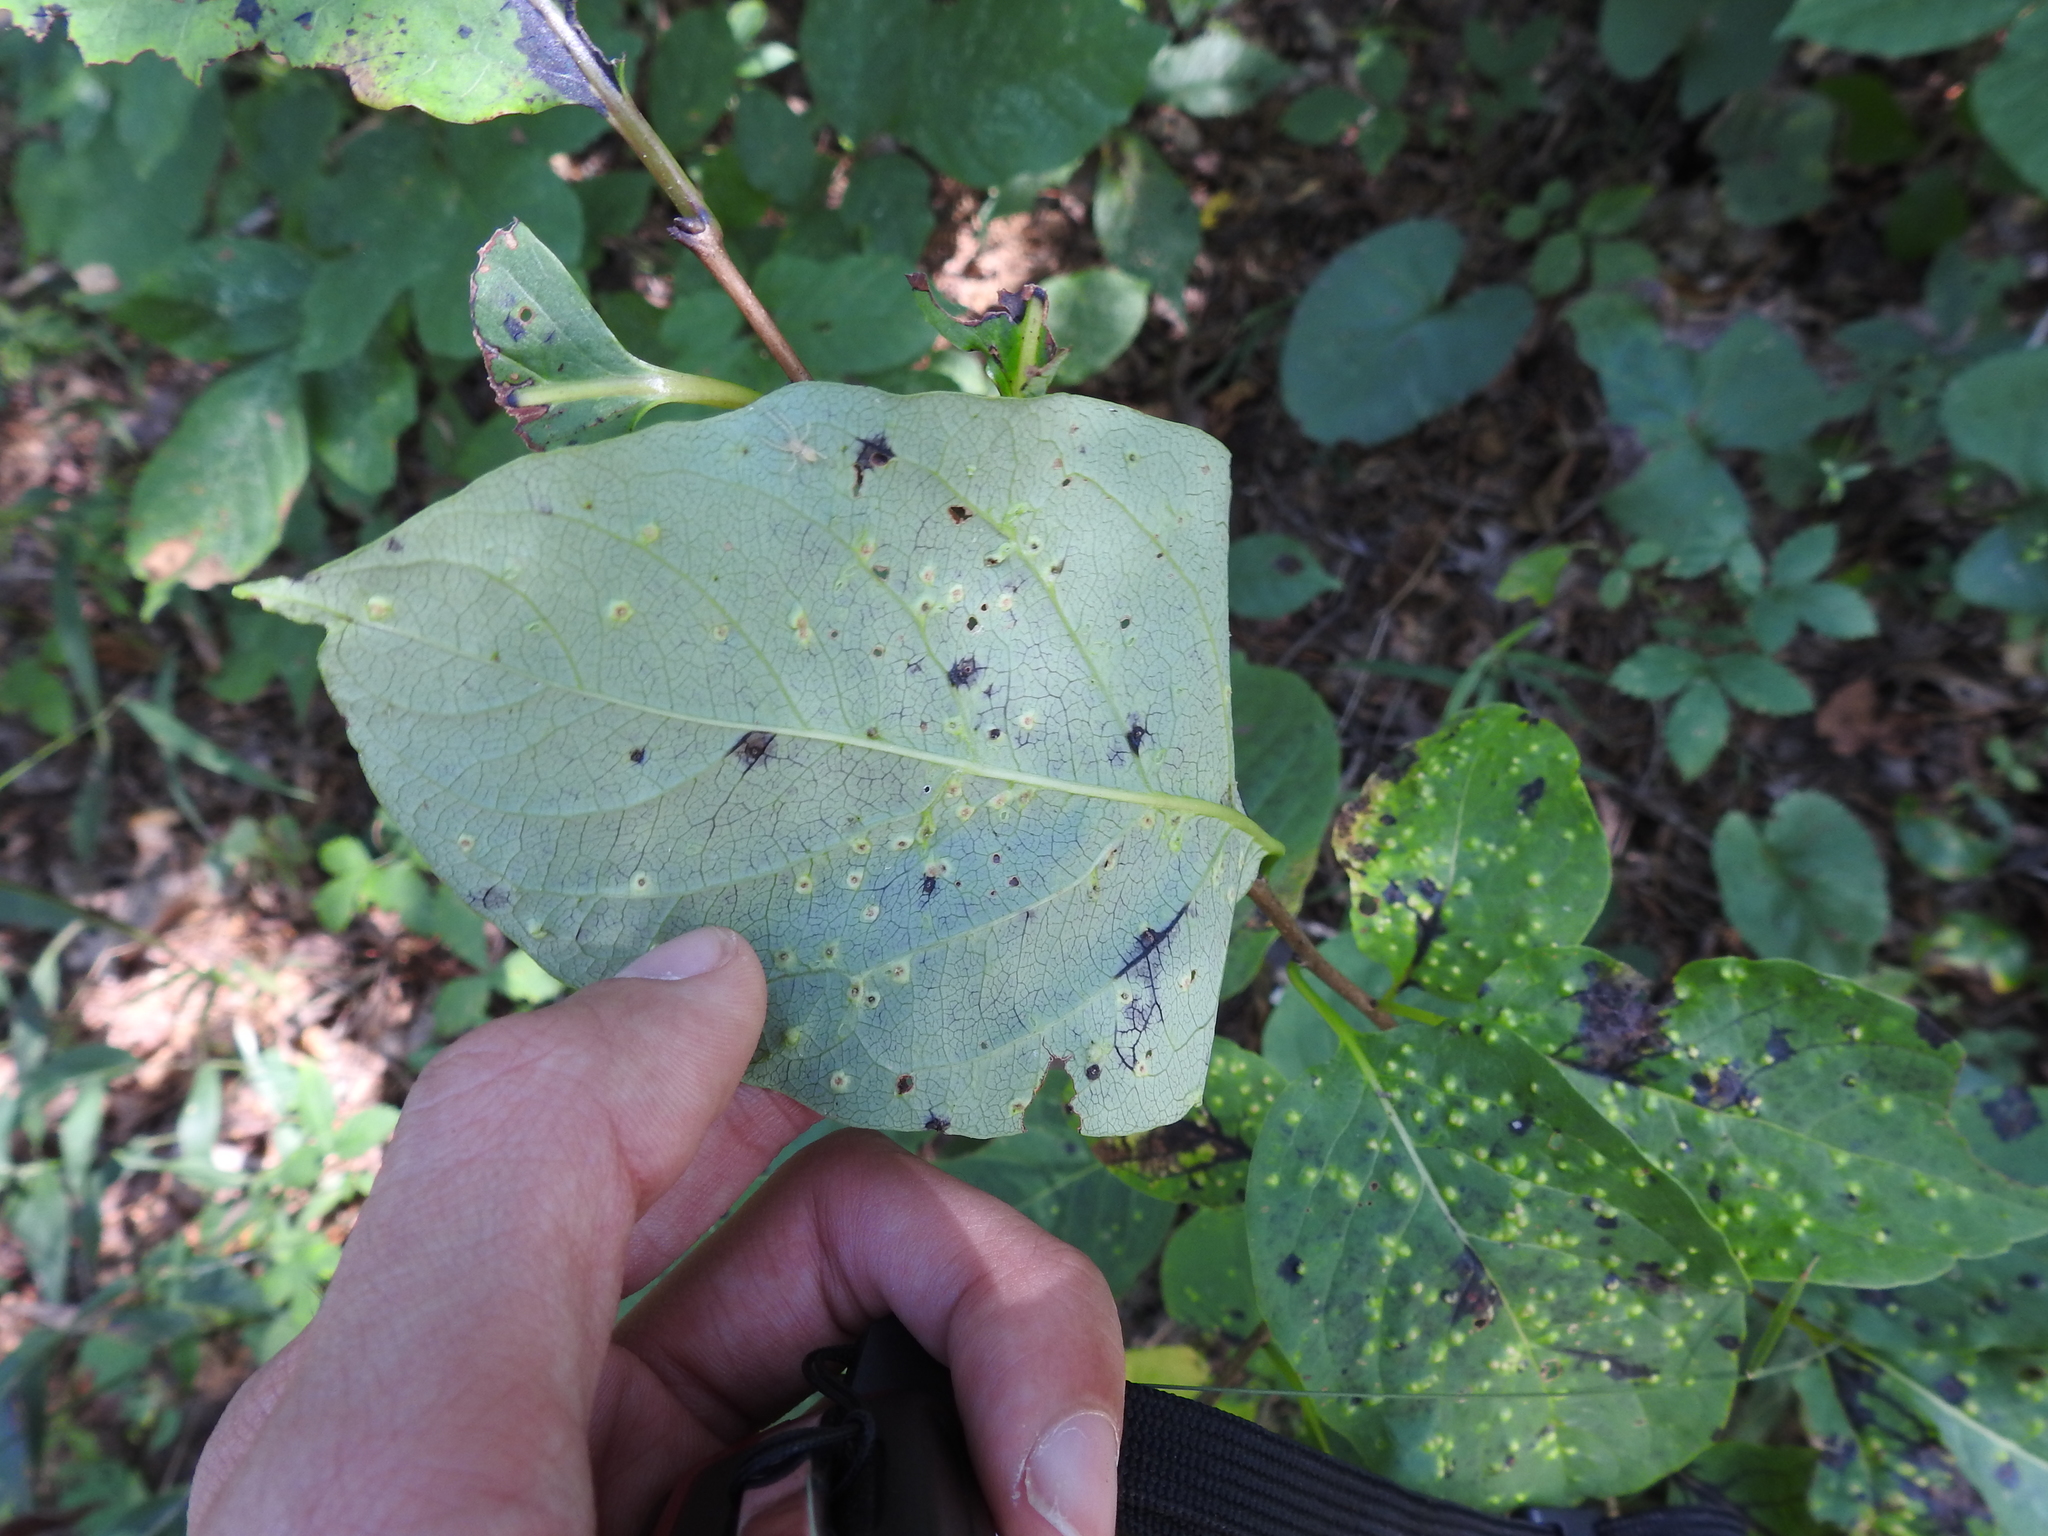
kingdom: Animalia
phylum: Arthropoda
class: Arachnida
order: Trombidiformes
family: Eriophyidae
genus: Aceria
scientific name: Aceria
